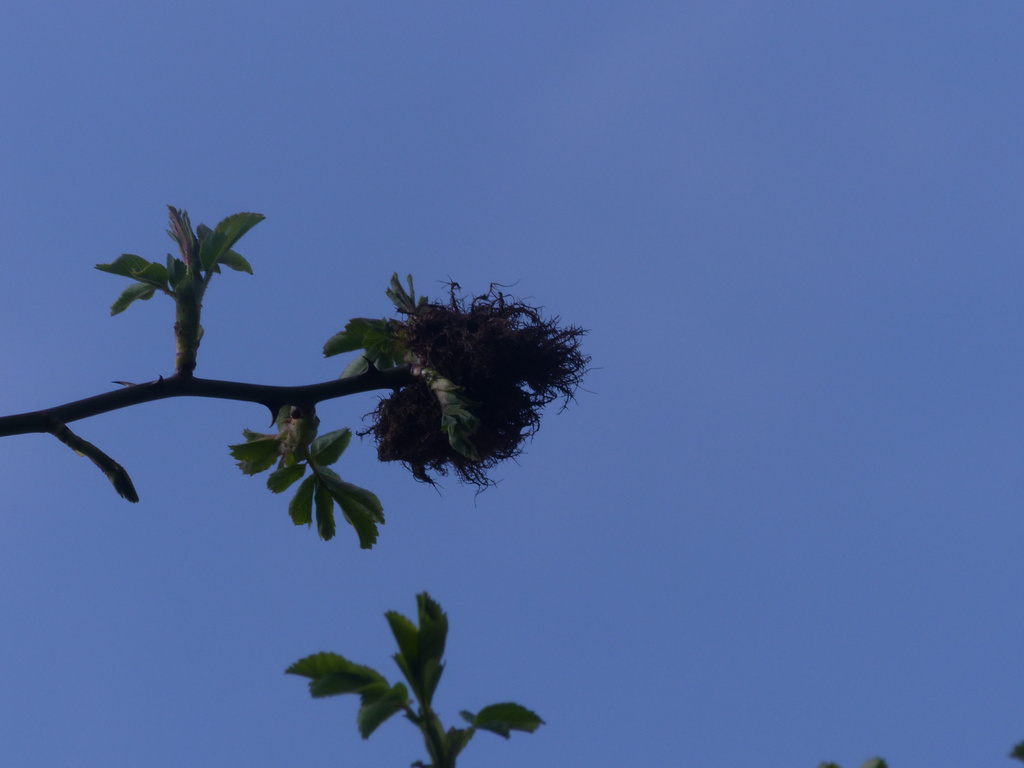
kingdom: Animalia
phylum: Arthropoda
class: Insecta
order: Hymenoptera
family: Cynipidae
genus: Diplolepis
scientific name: Diplolepis rosae
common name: Bedeguar gall
